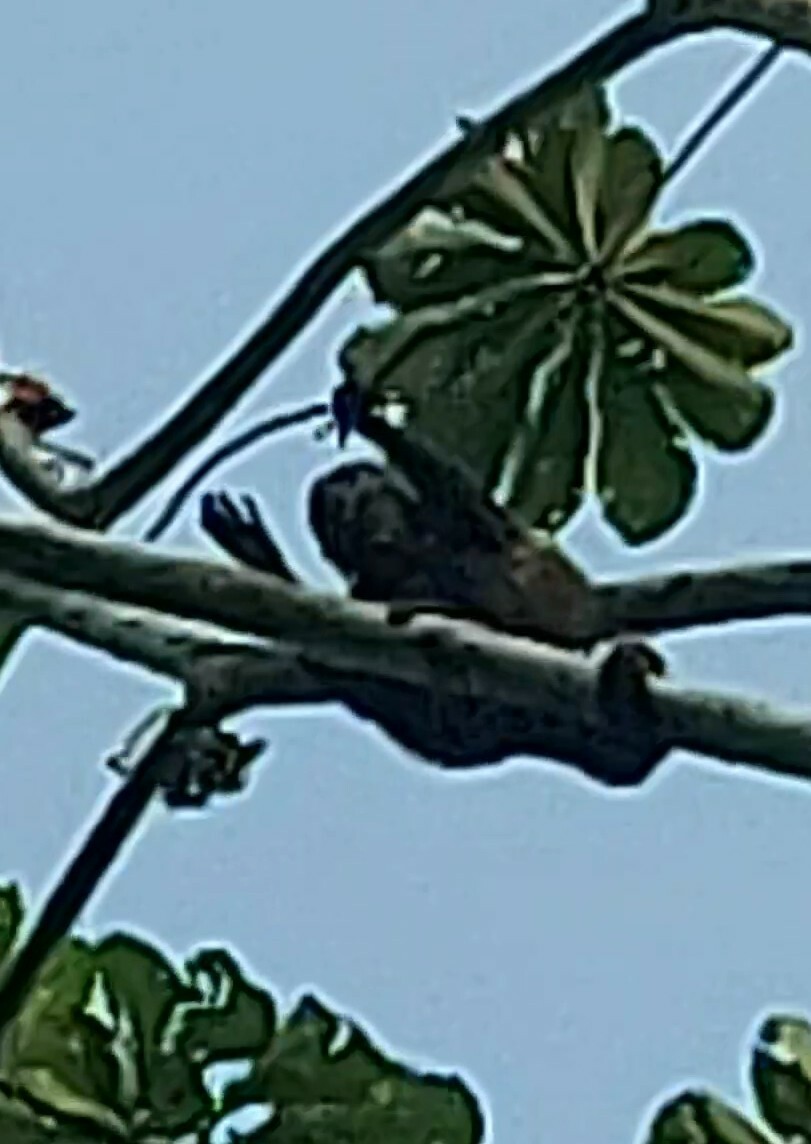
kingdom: Animalia
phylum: Chordata
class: Mammalia
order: Primates
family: Atelidae
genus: Alouatta
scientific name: Alouatta palliata
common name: Mantled howler
